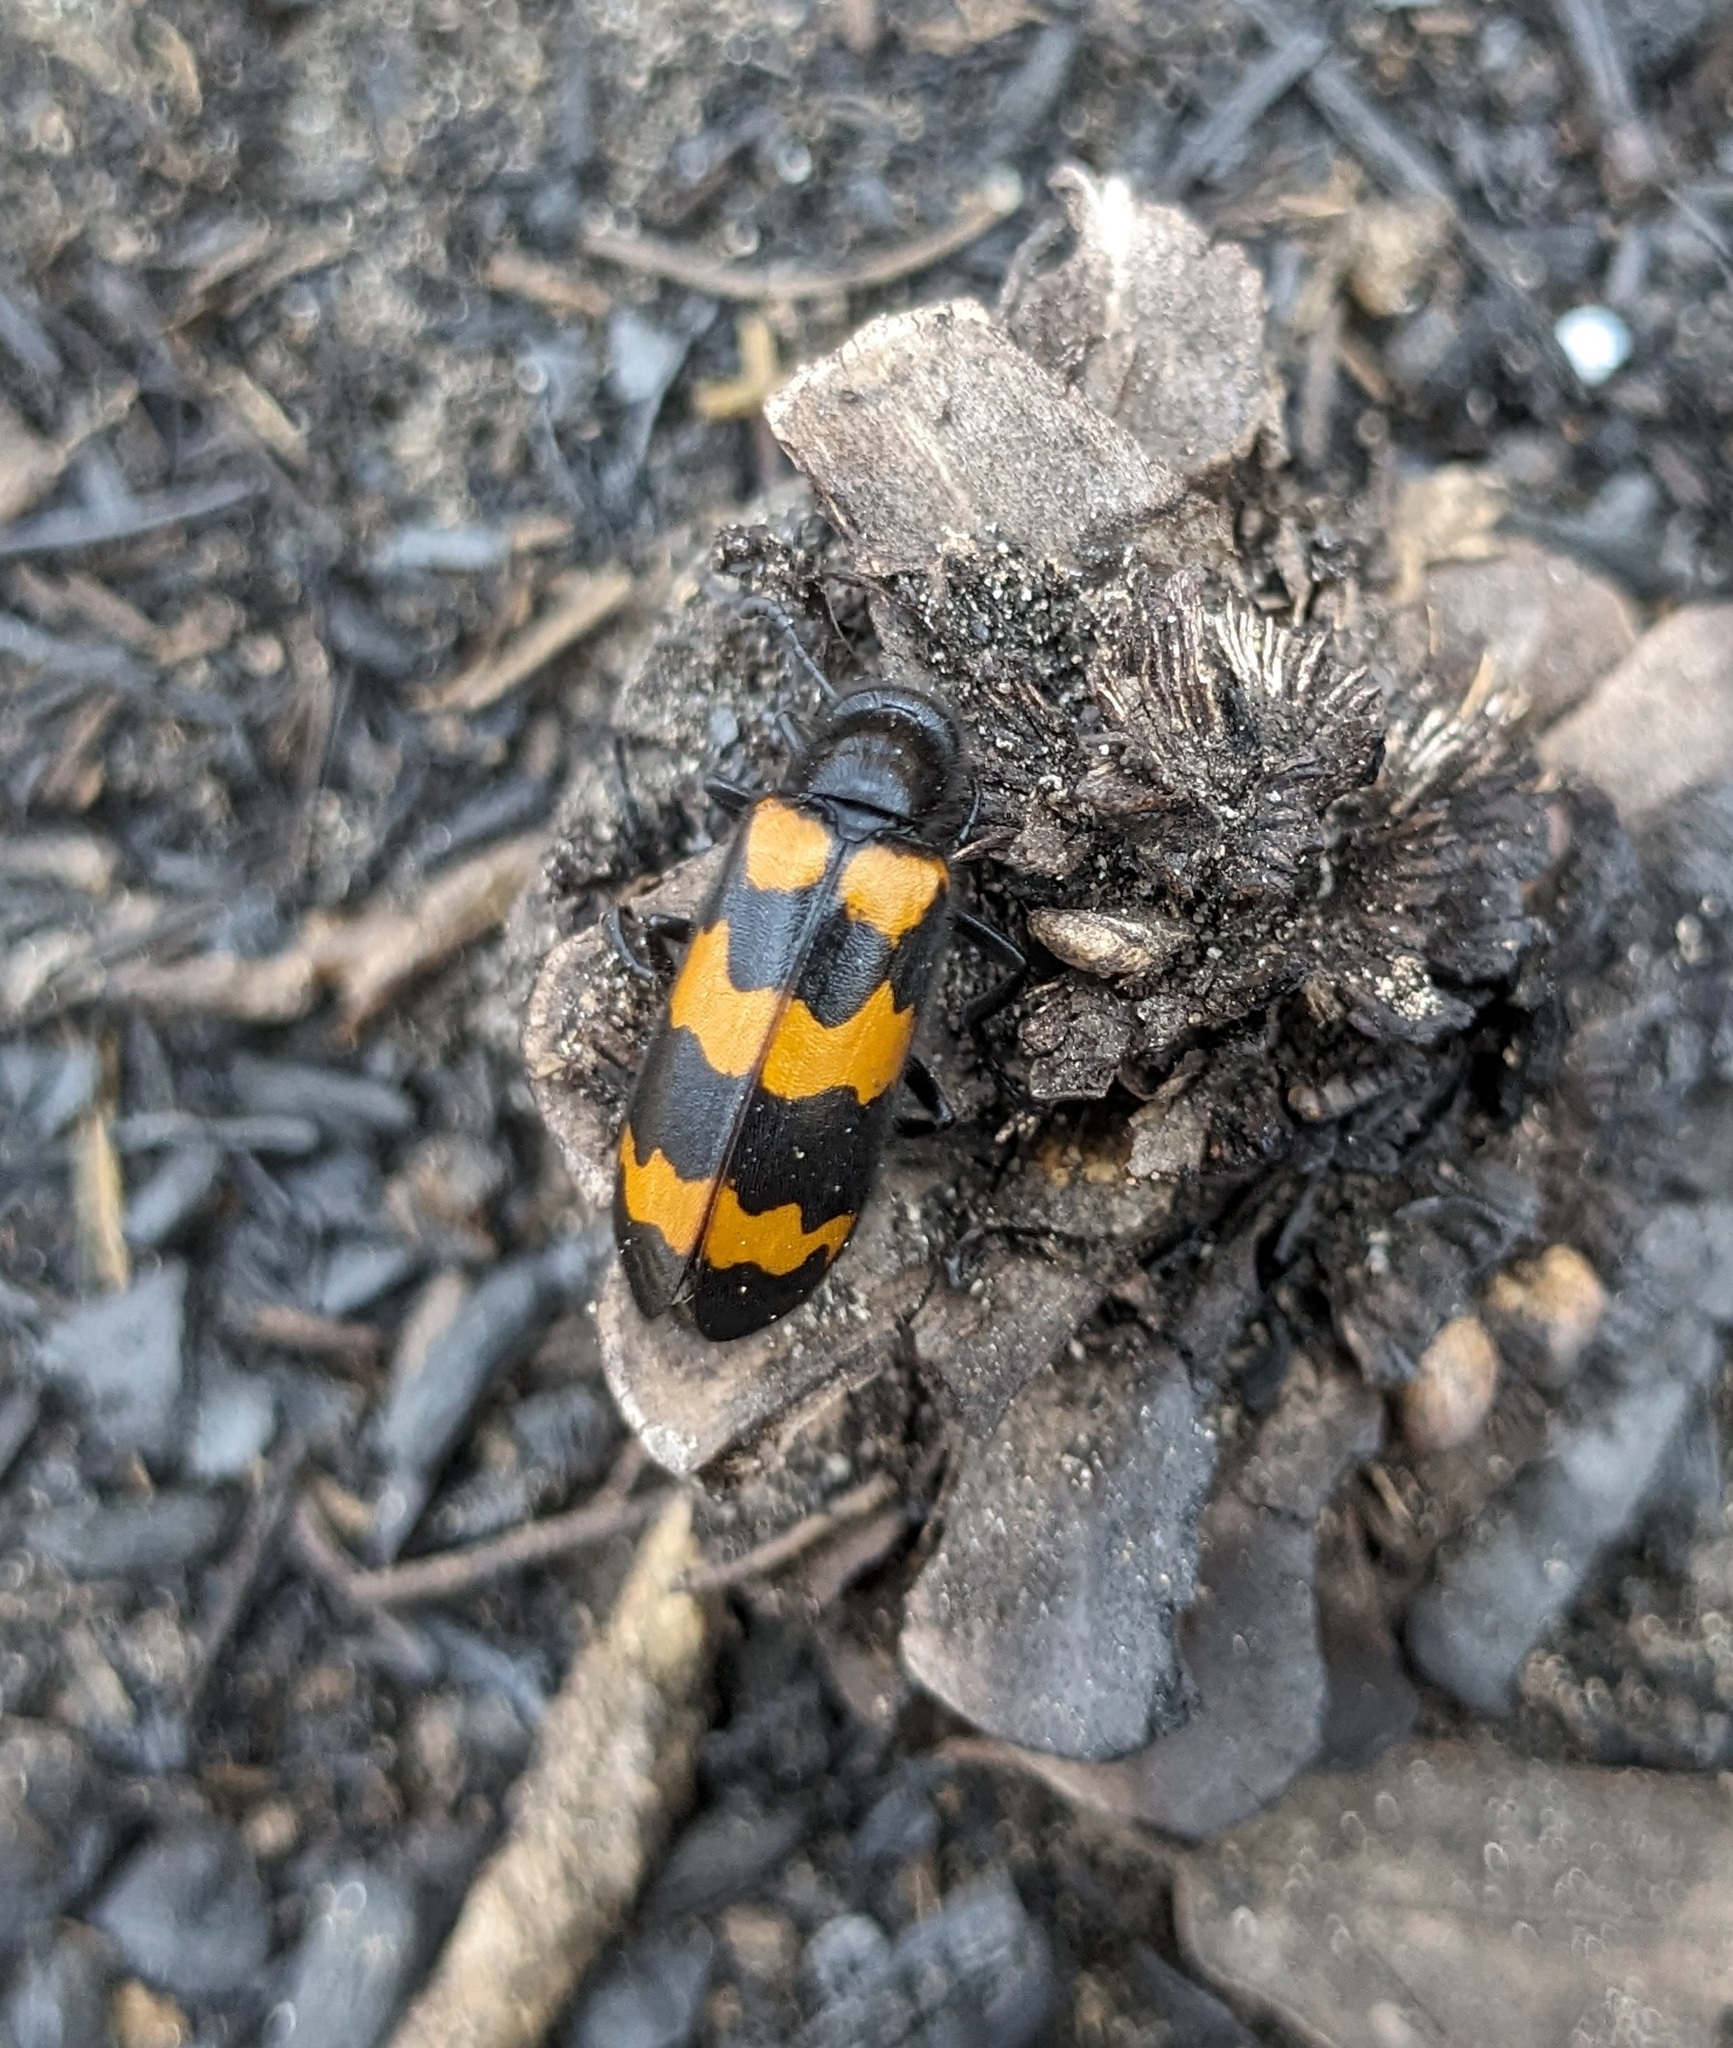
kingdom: Animalia
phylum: Arthropoda
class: Insecta
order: Coleoptera
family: Meloidae
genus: Mylabris
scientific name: Mylabris variabilis
